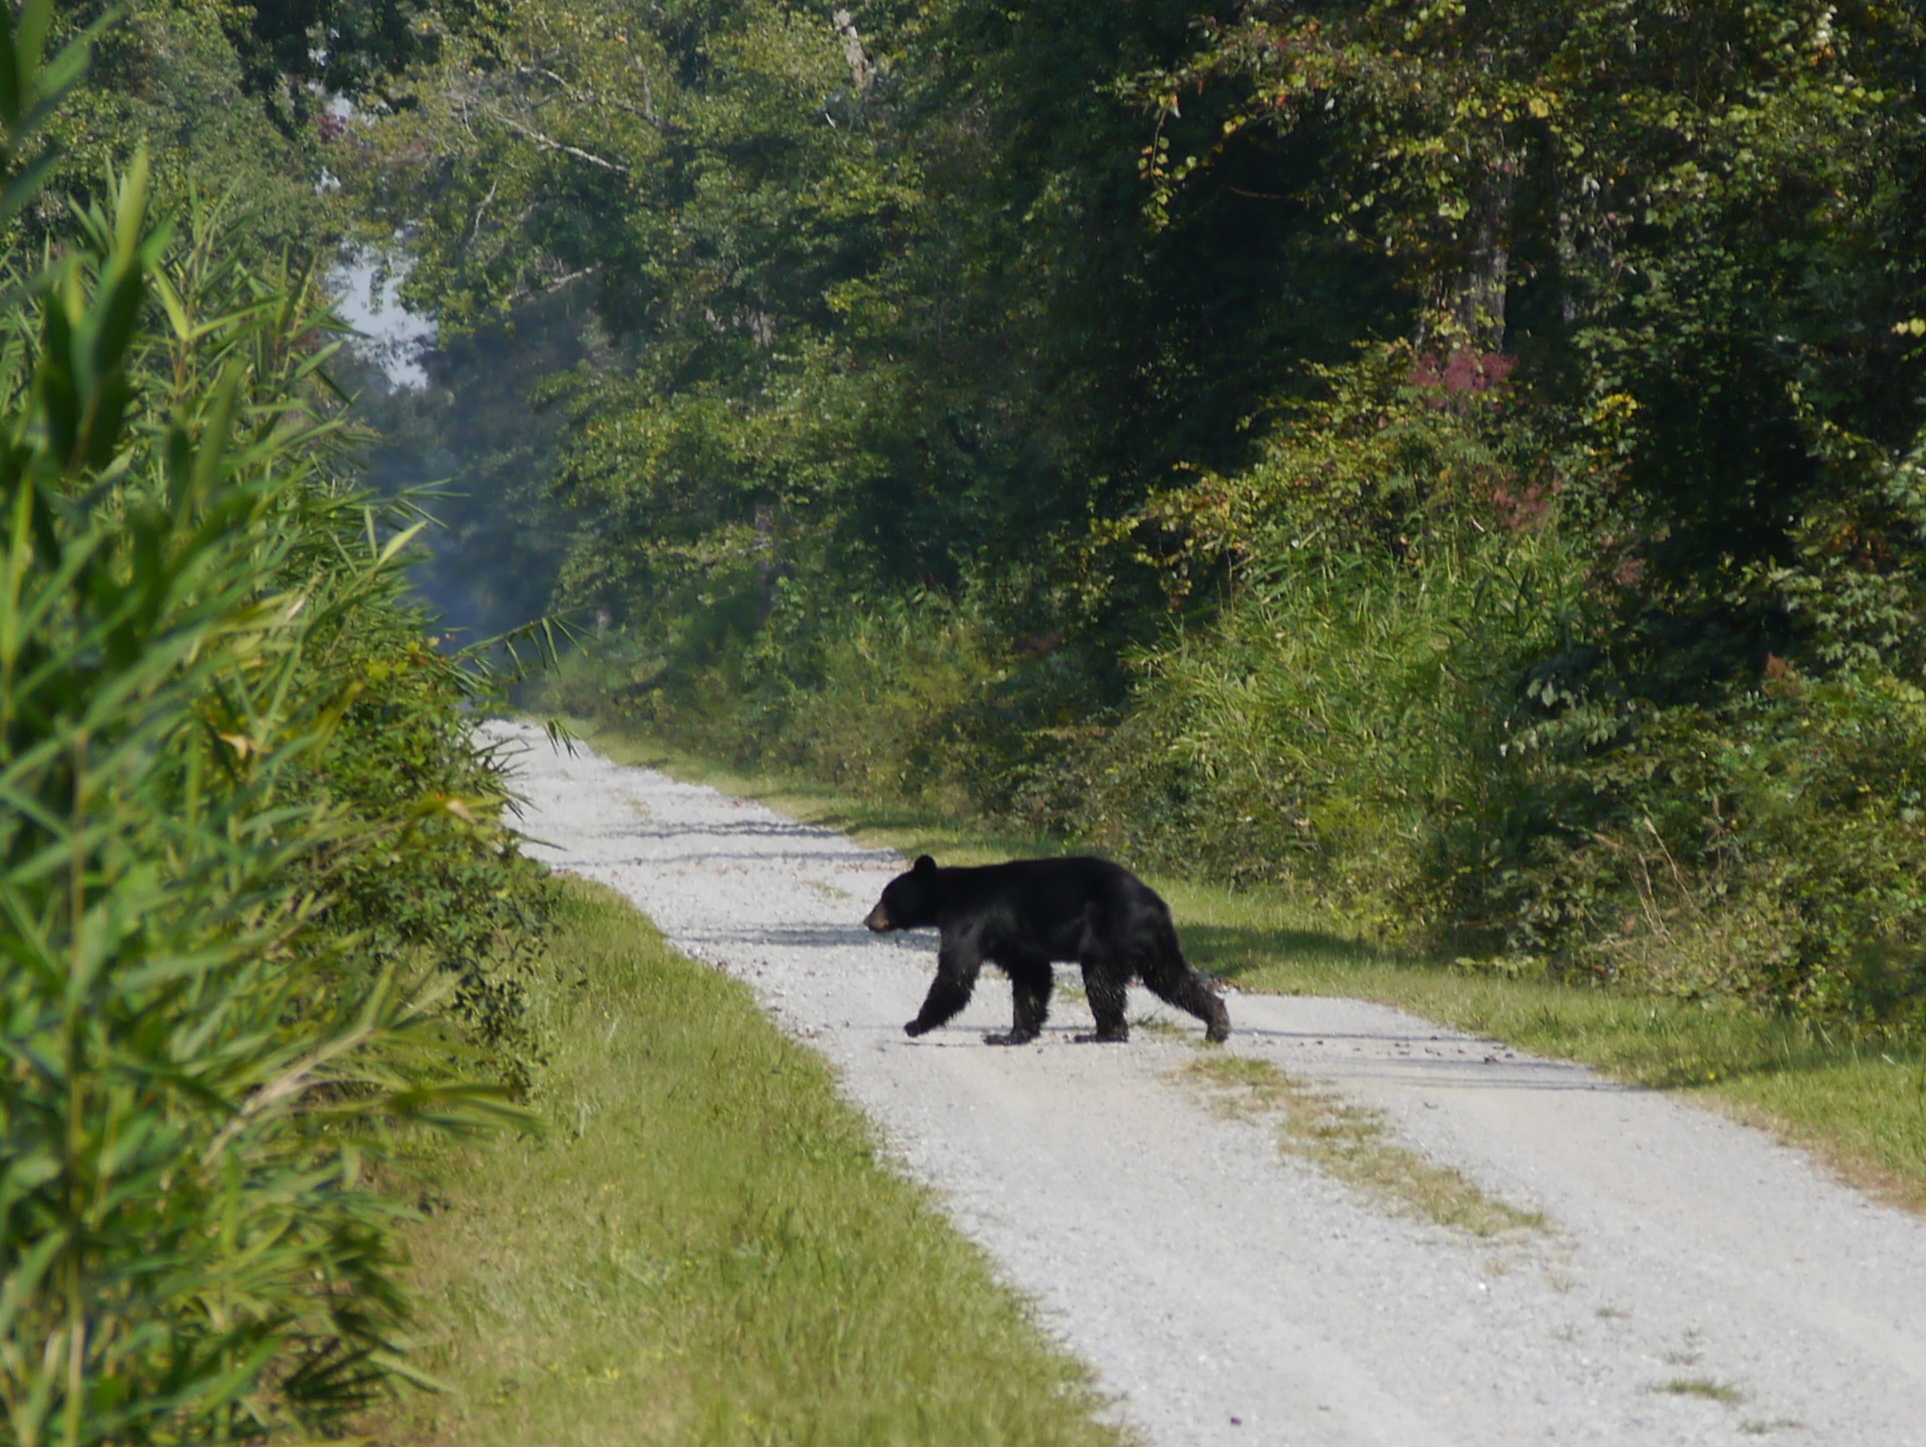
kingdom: Animalia
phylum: Chordata
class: Mammalia
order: Carnivora
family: Ursidae
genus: Ursus
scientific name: Ursus americanus
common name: American black bear
